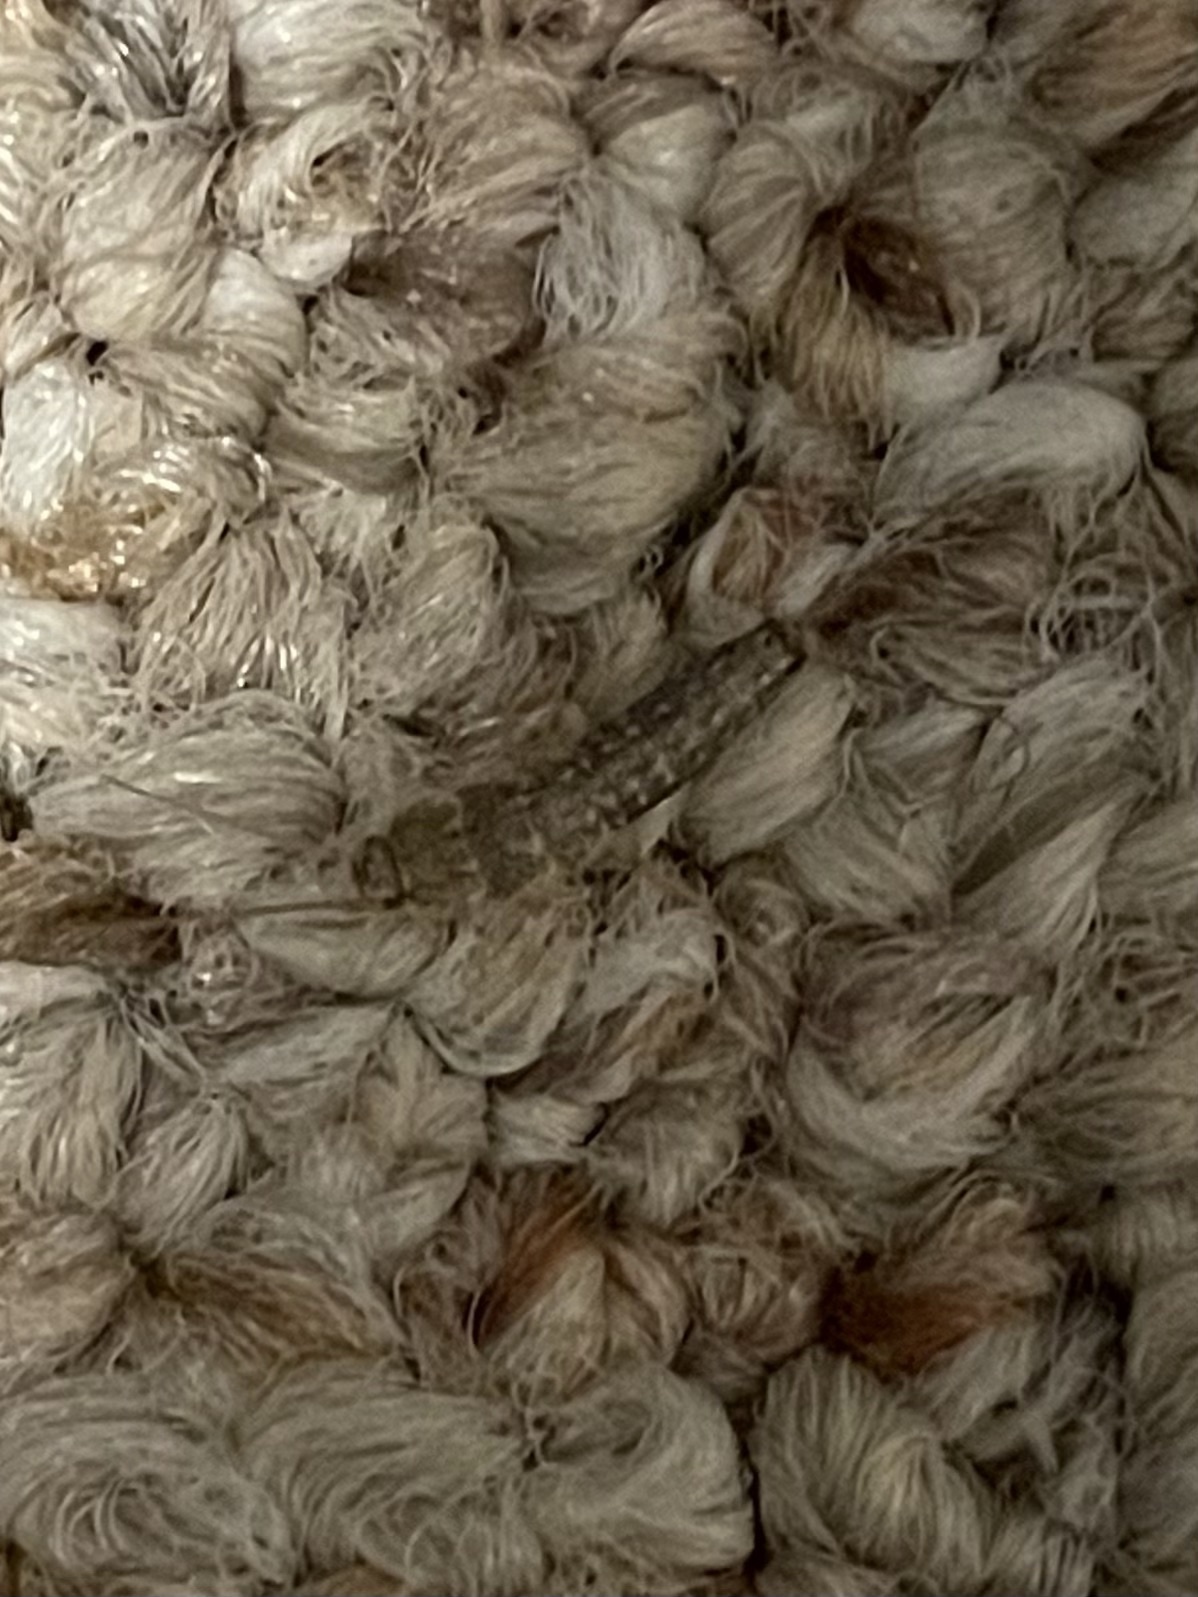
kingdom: Animalia
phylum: Arthropoda
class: Insecta
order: Zygentoma
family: Lepismatidae
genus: Ctenolepisma
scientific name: Ctenolepisma lineata
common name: Four-lined silverfish
